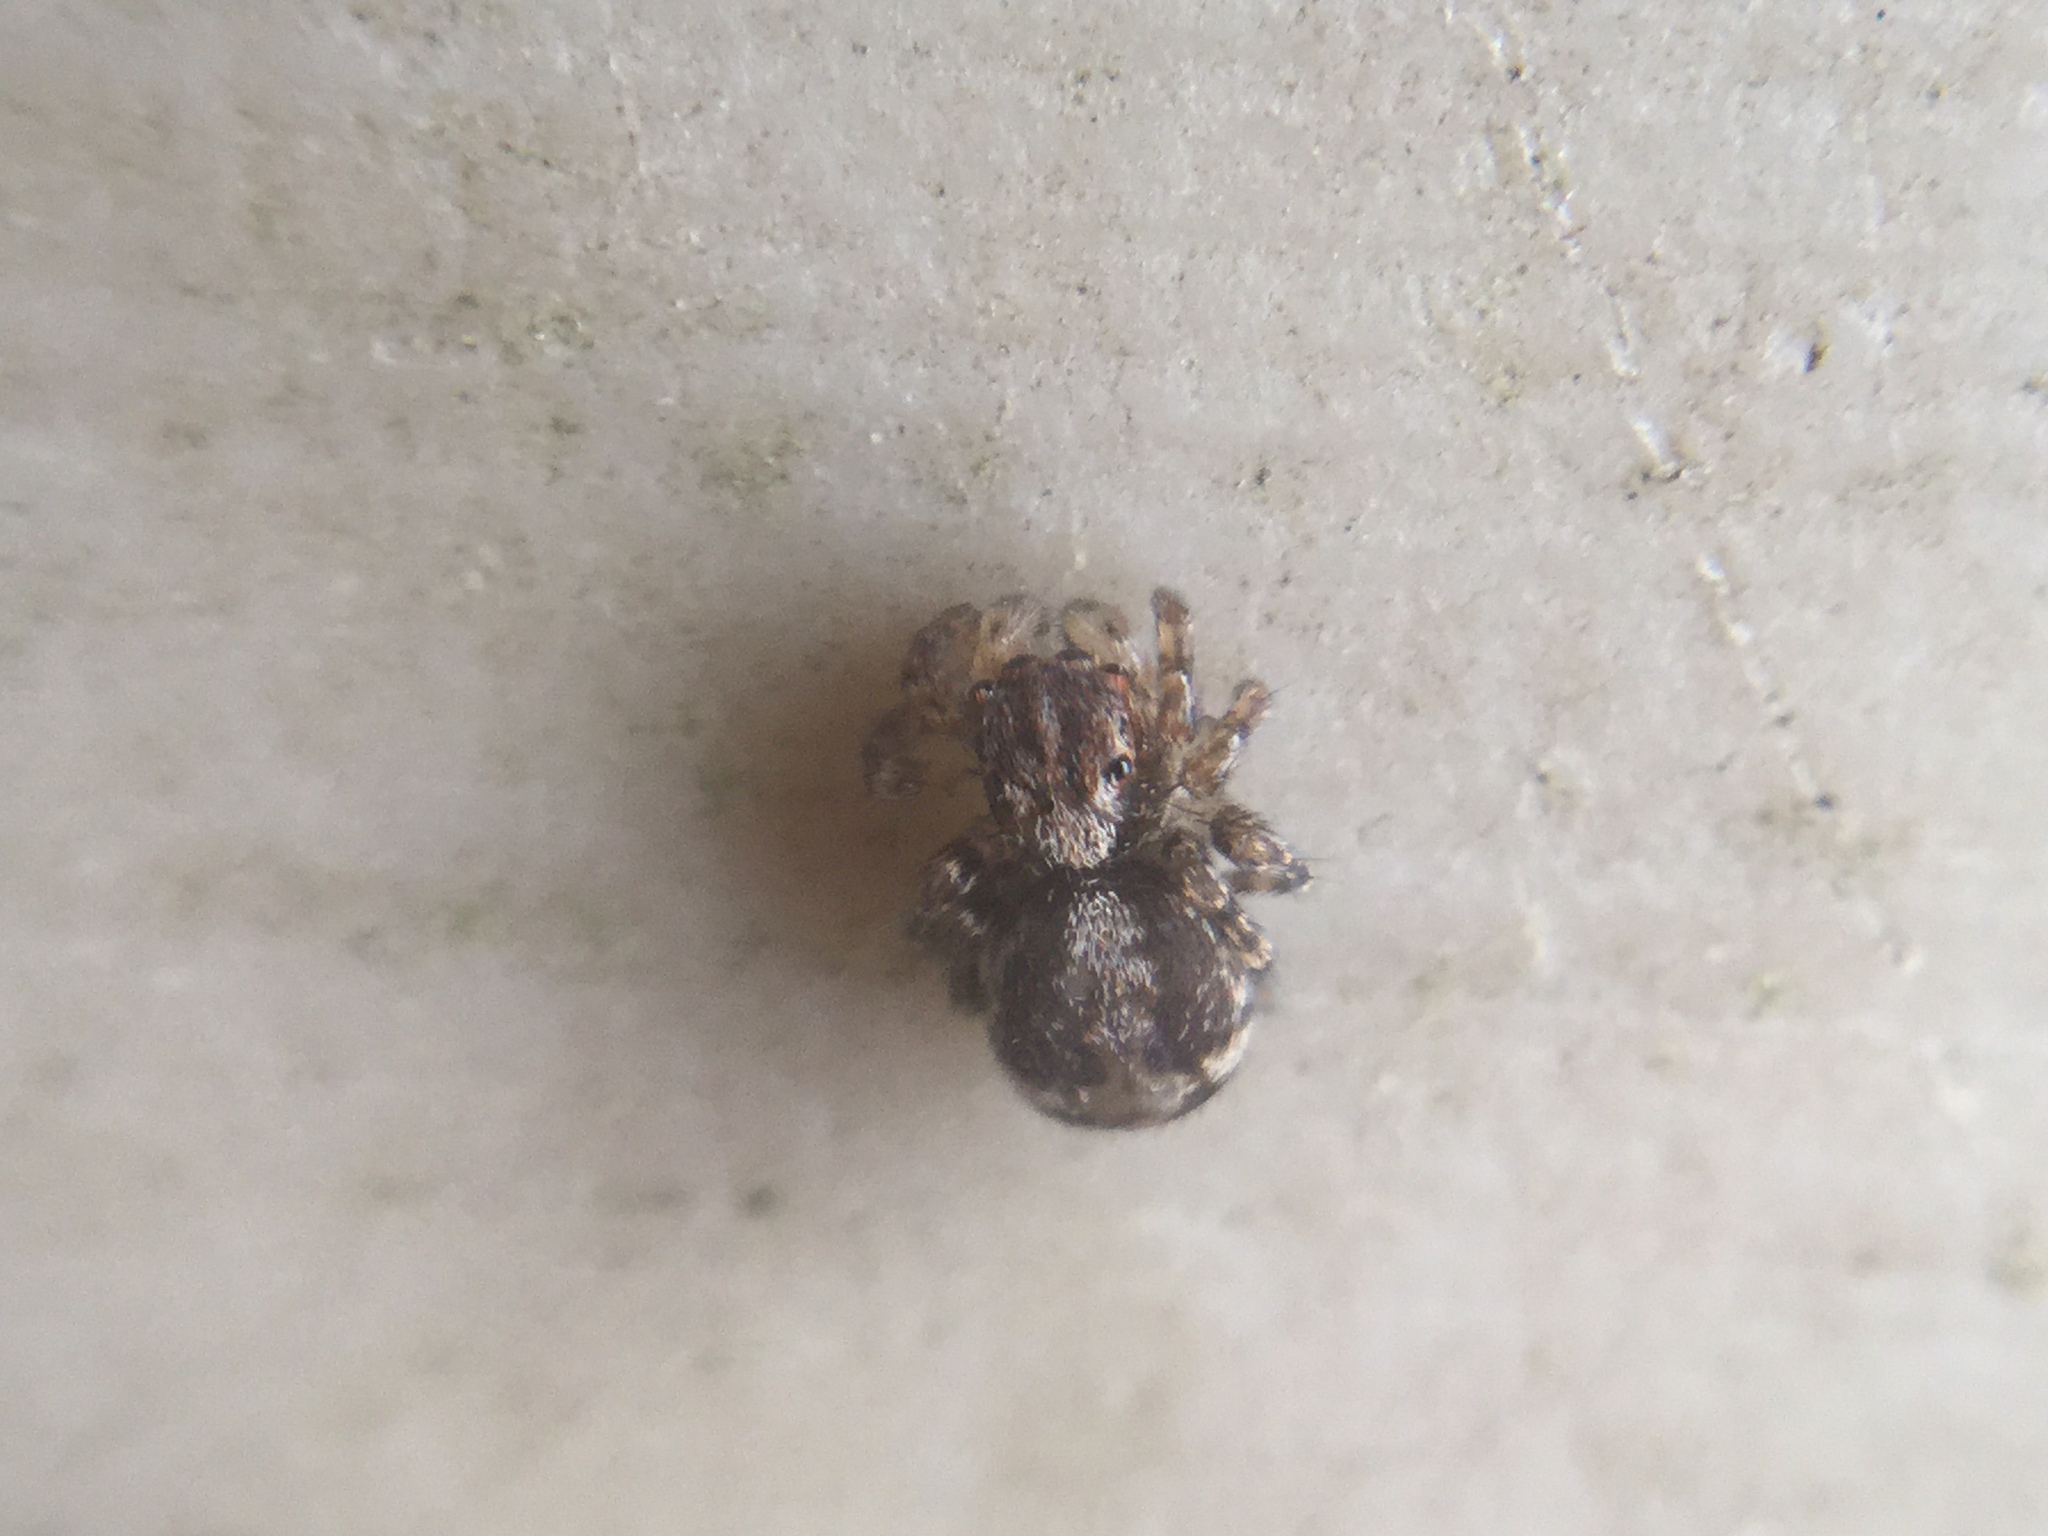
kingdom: Animalia
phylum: Arthropoda
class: Arachnida
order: Araneae
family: Salticidae
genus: Naphrys
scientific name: Naphrys pulex
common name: Flea jumping spider
